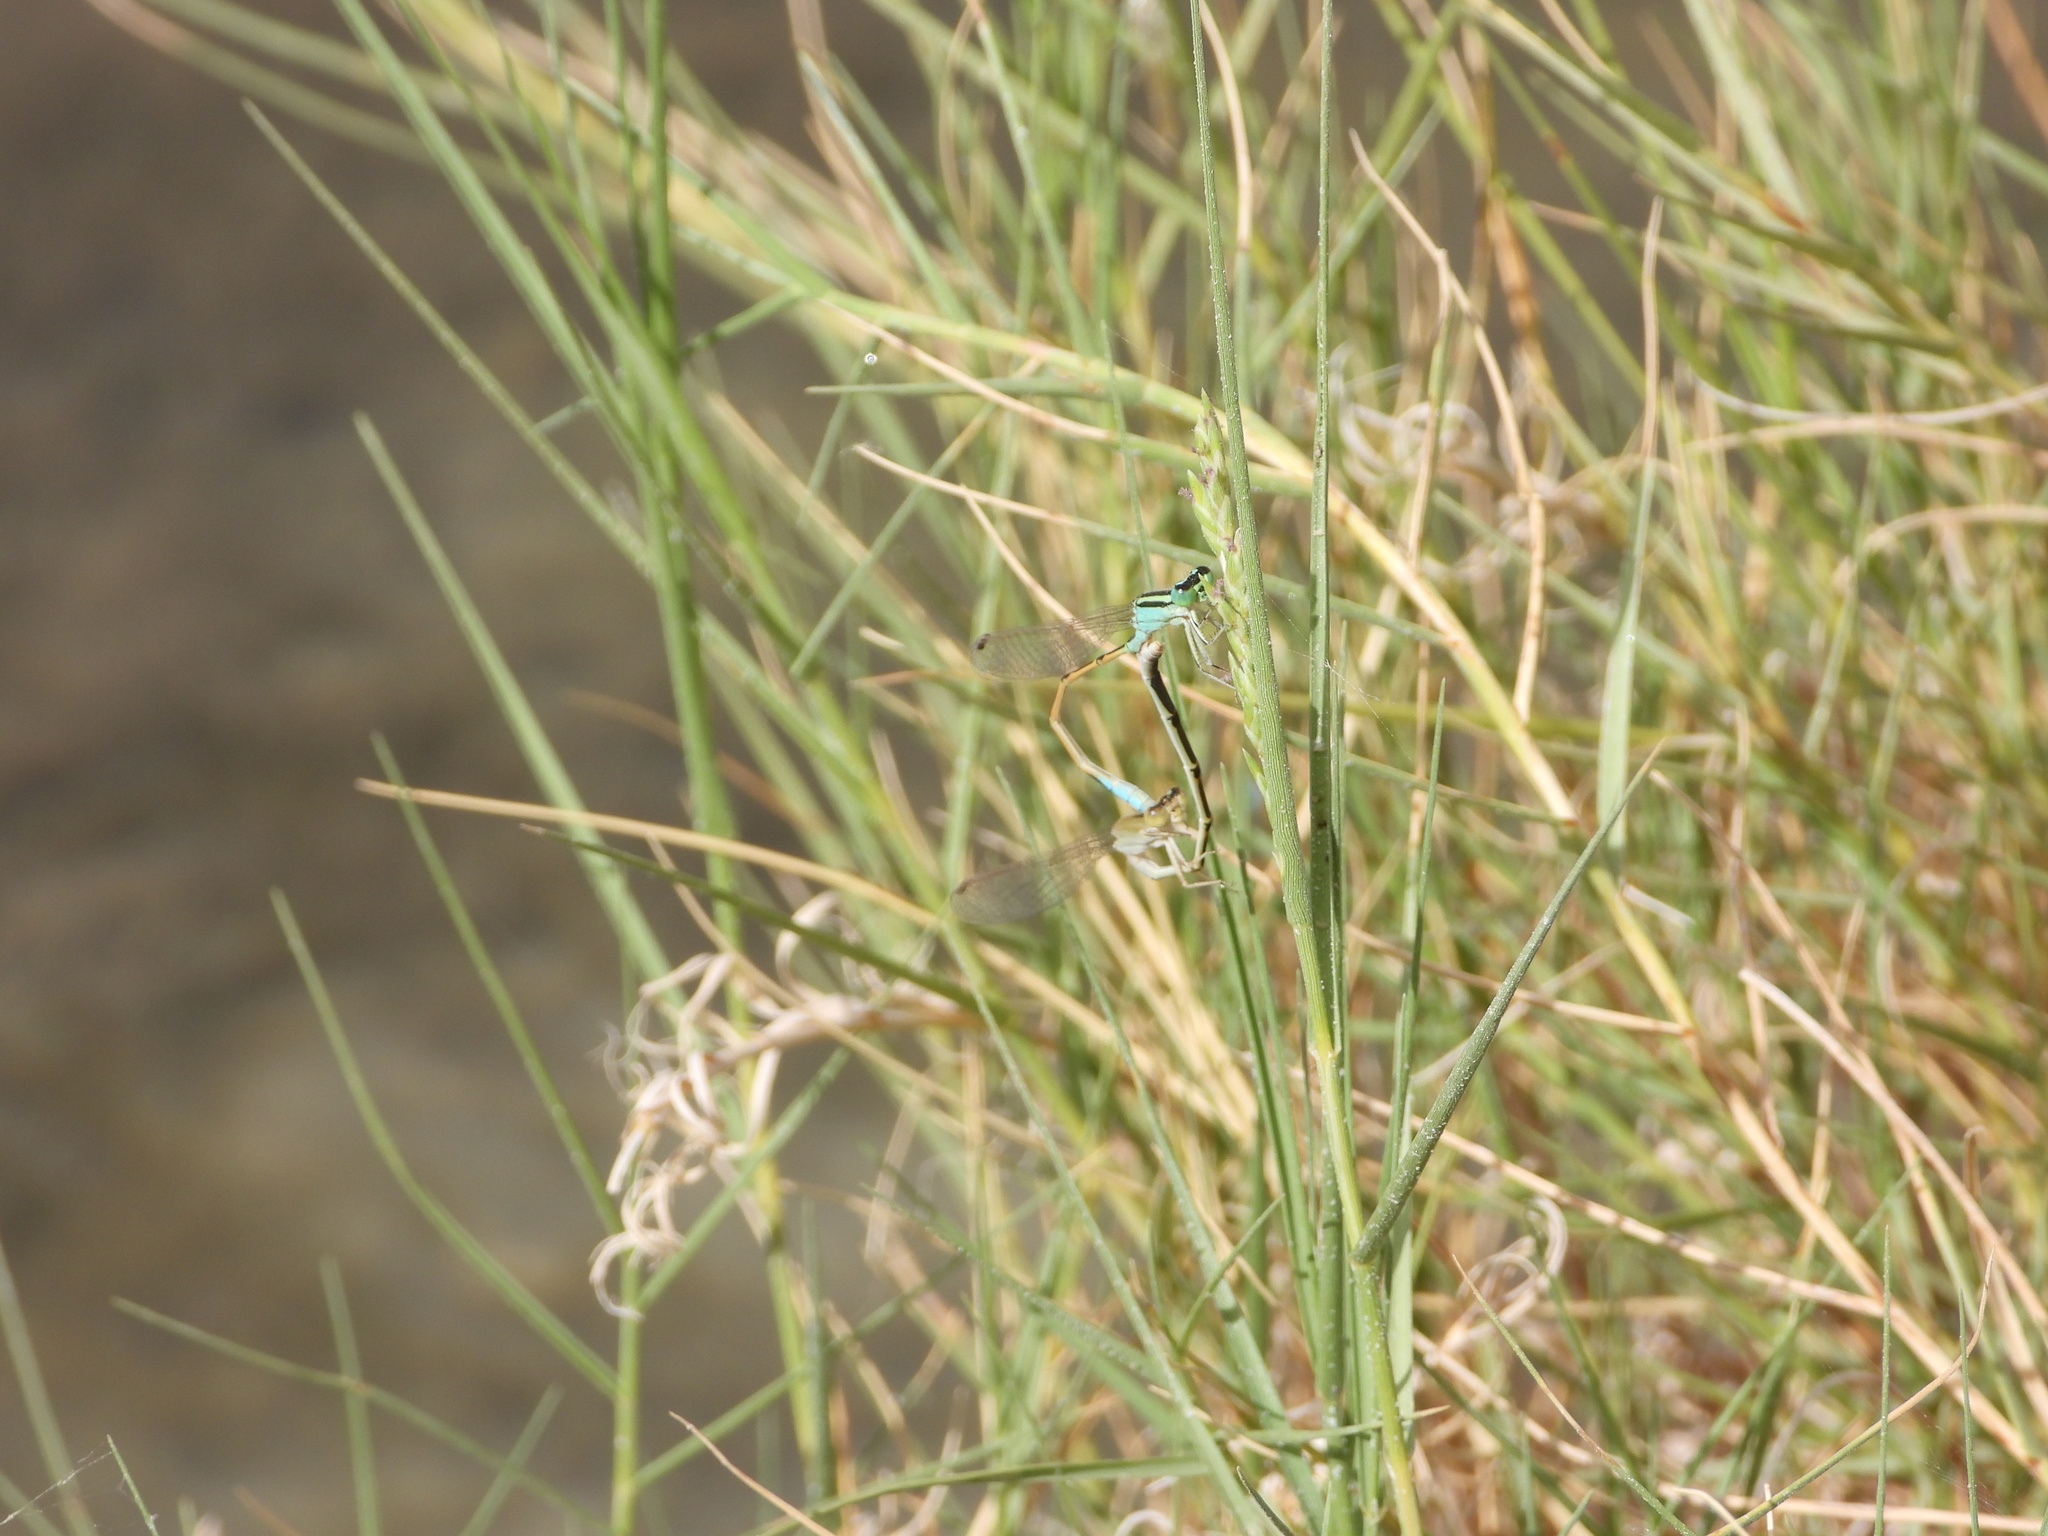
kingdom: Animalia
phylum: Arthropoda
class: Insecta
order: Odonata
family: Coenagrionidae
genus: Ischnura
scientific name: Ischnura barberi
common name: Desert forktail
